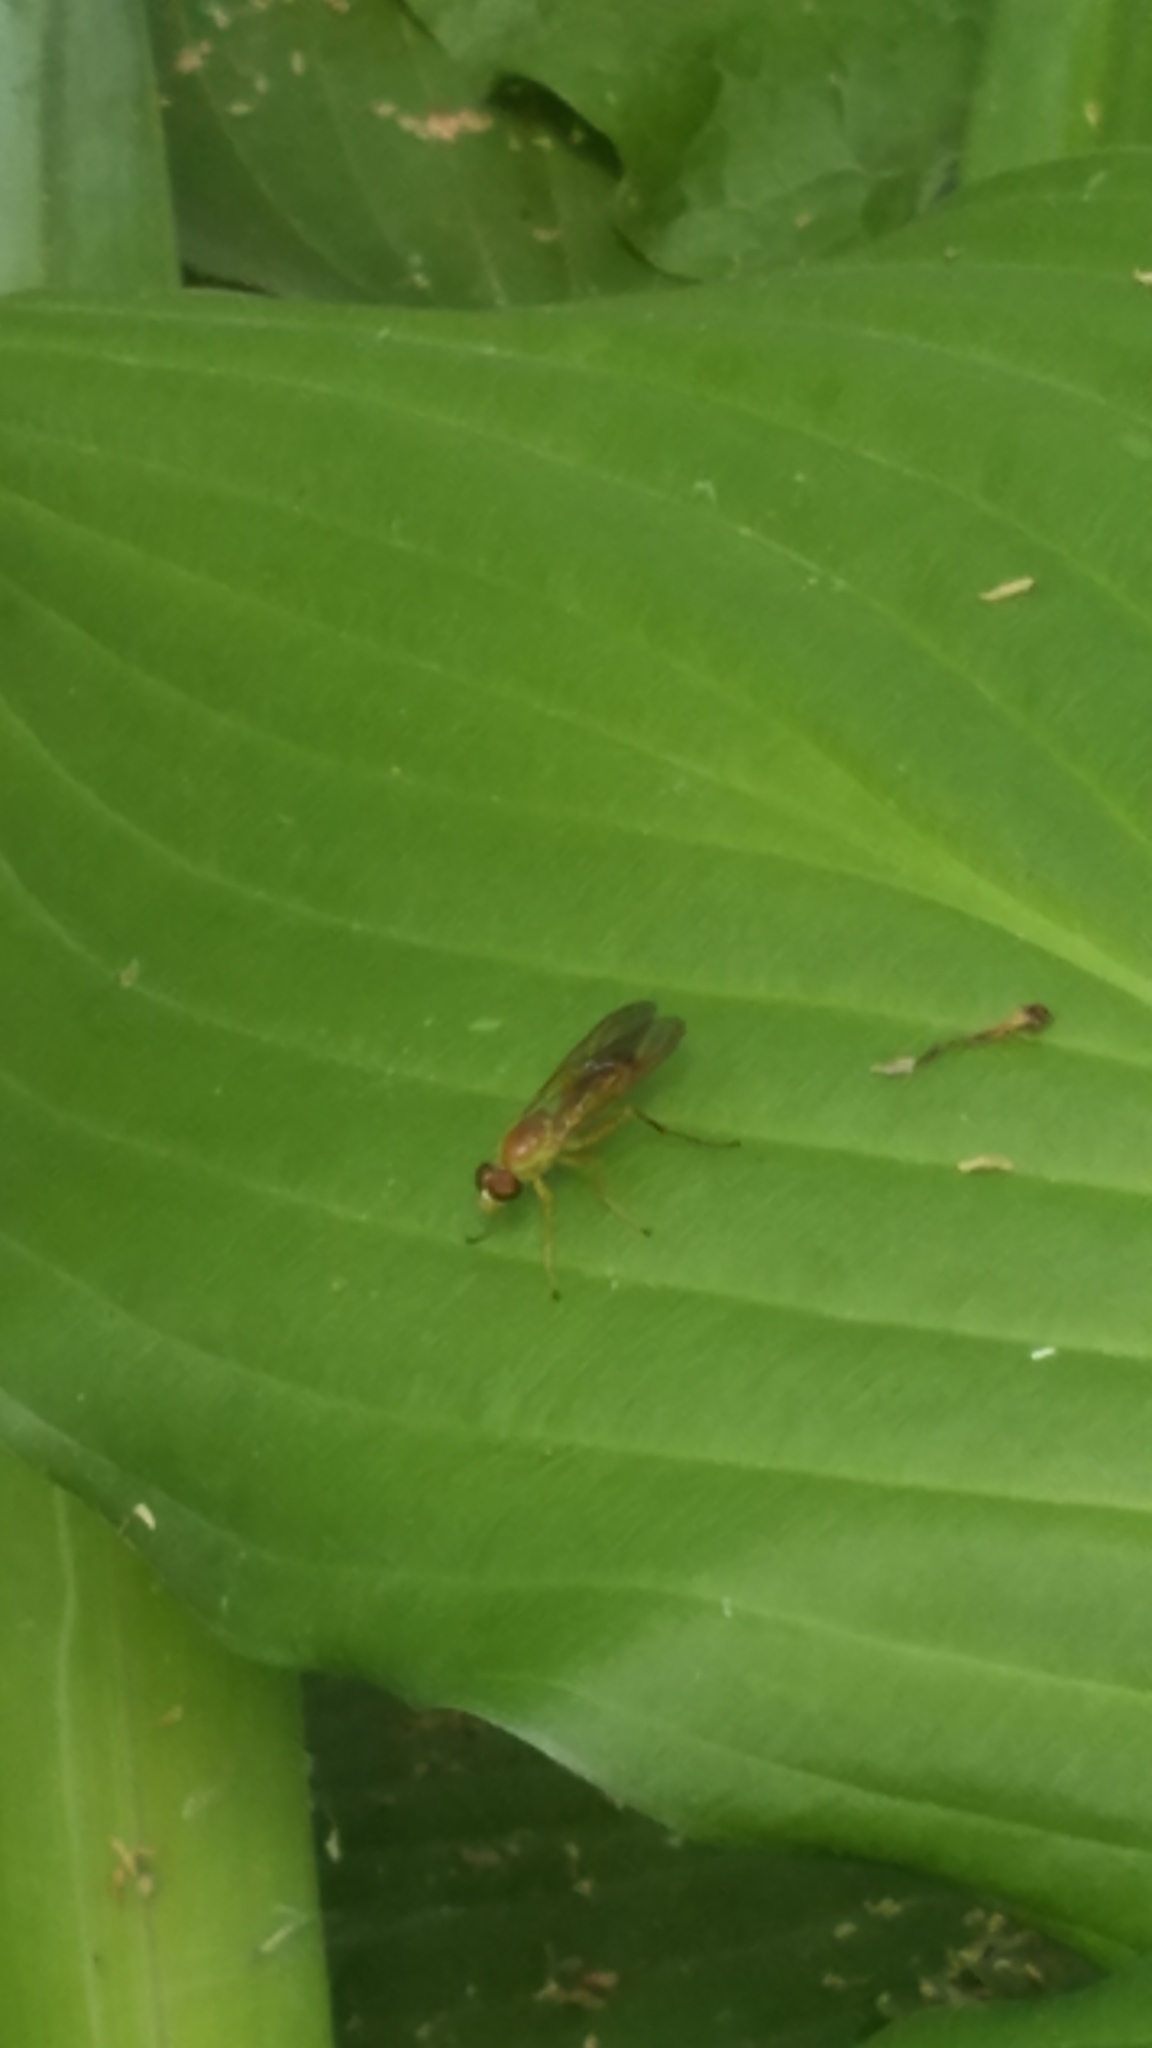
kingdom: Animalia
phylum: Arthropoda
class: Insecta
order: Diptera
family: Stratiomyidae
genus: Ptecticus
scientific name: Ptecticus trivittatus
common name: Compost fly
